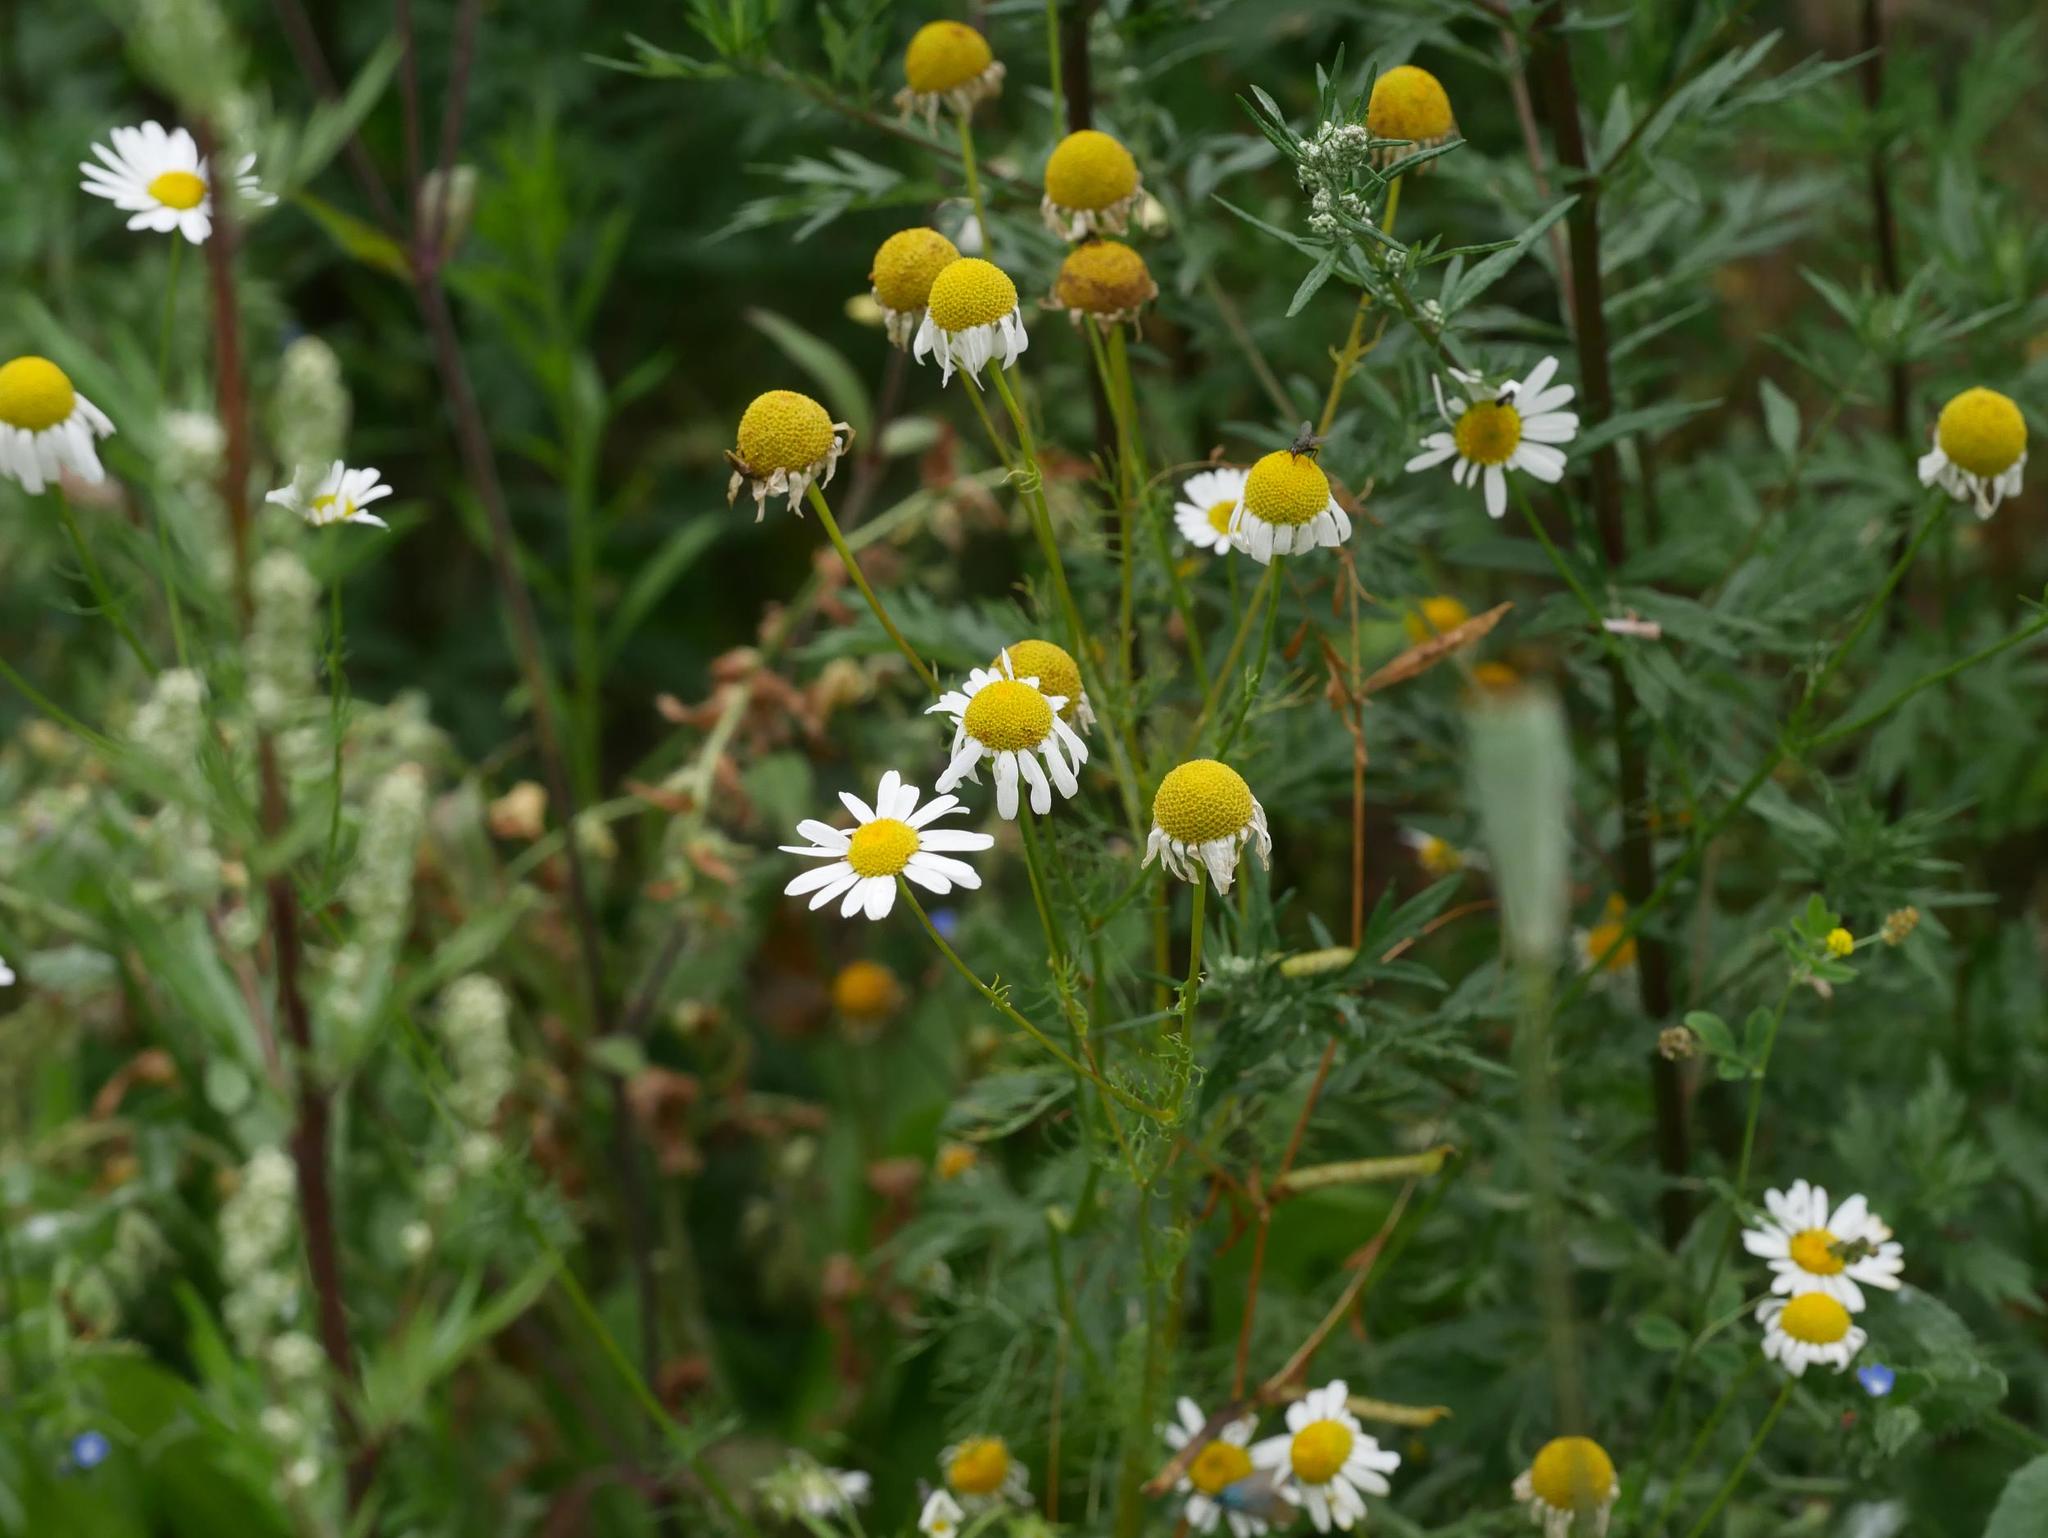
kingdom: Plantae
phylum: Tracheophyta
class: Magnoliopsida
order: Asterales
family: Asteraceae
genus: Matricaria
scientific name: Matricaria chamomilla
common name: Scented mayweed
